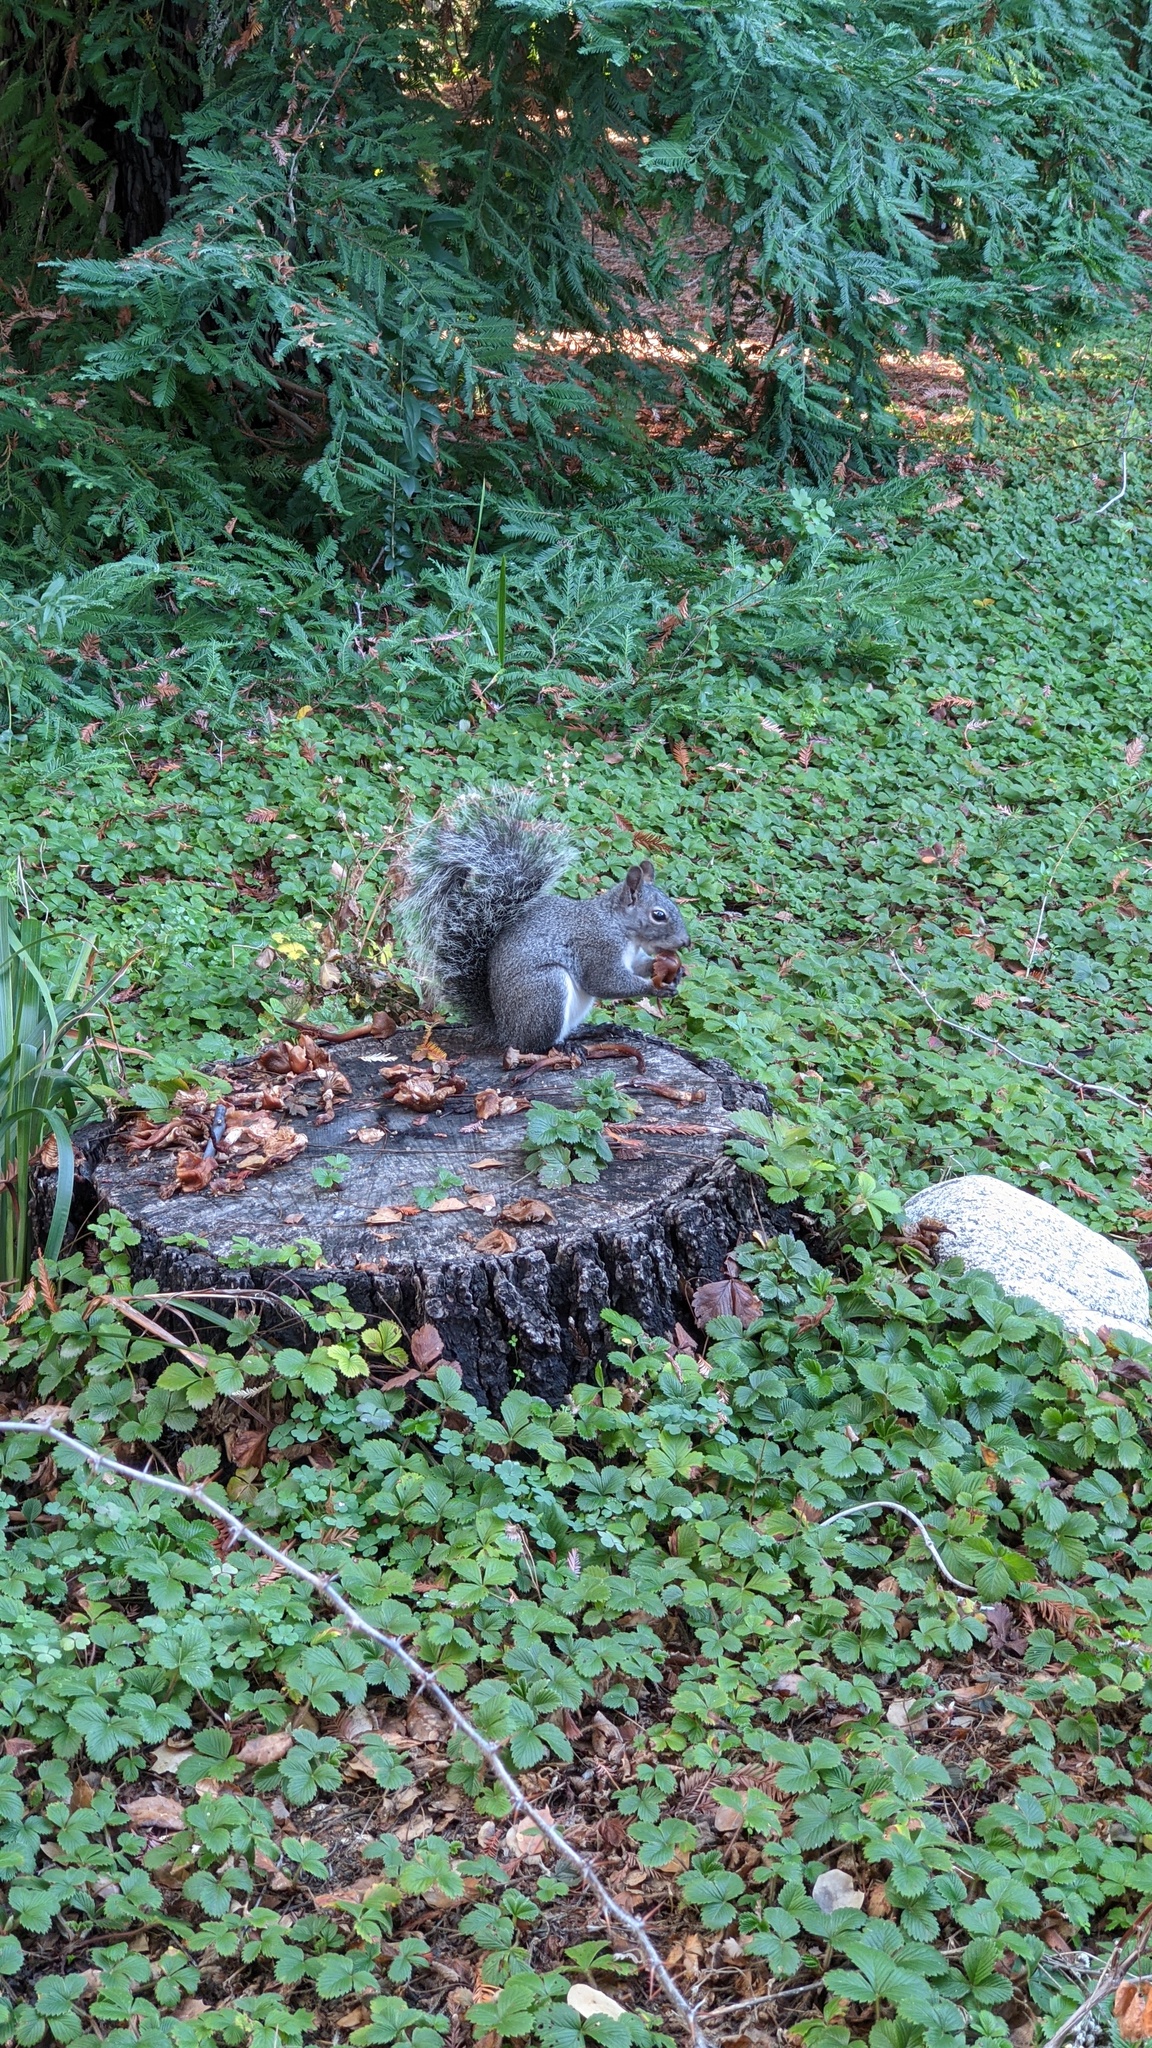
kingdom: Animalia
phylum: Chordata
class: Mammalia
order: Rodentia
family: Sciuridae
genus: Sciurus
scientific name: Sciurus griseus
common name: Western gray squirrel
